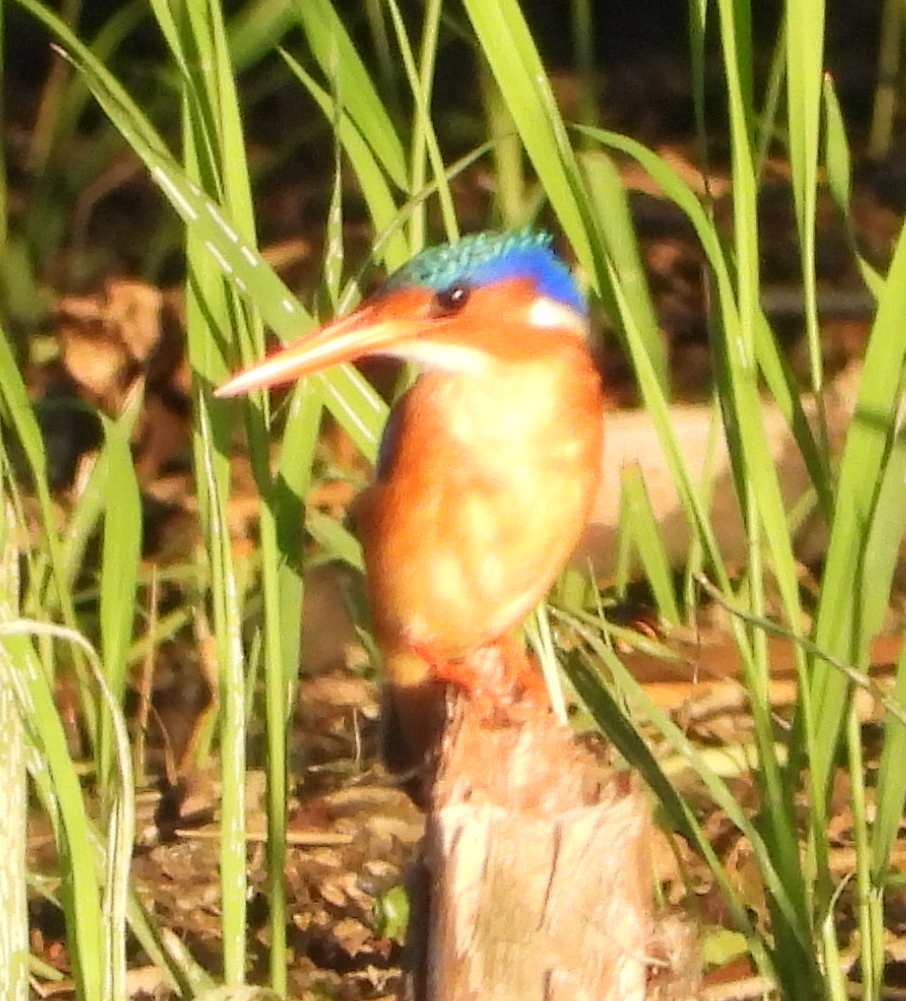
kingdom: Animalia
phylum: Chordata
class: Aves
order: Coraciiformes
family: Alcedinidae
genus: Corythornis
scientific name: Corythornis cristatus
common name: Malachite kingfisher
